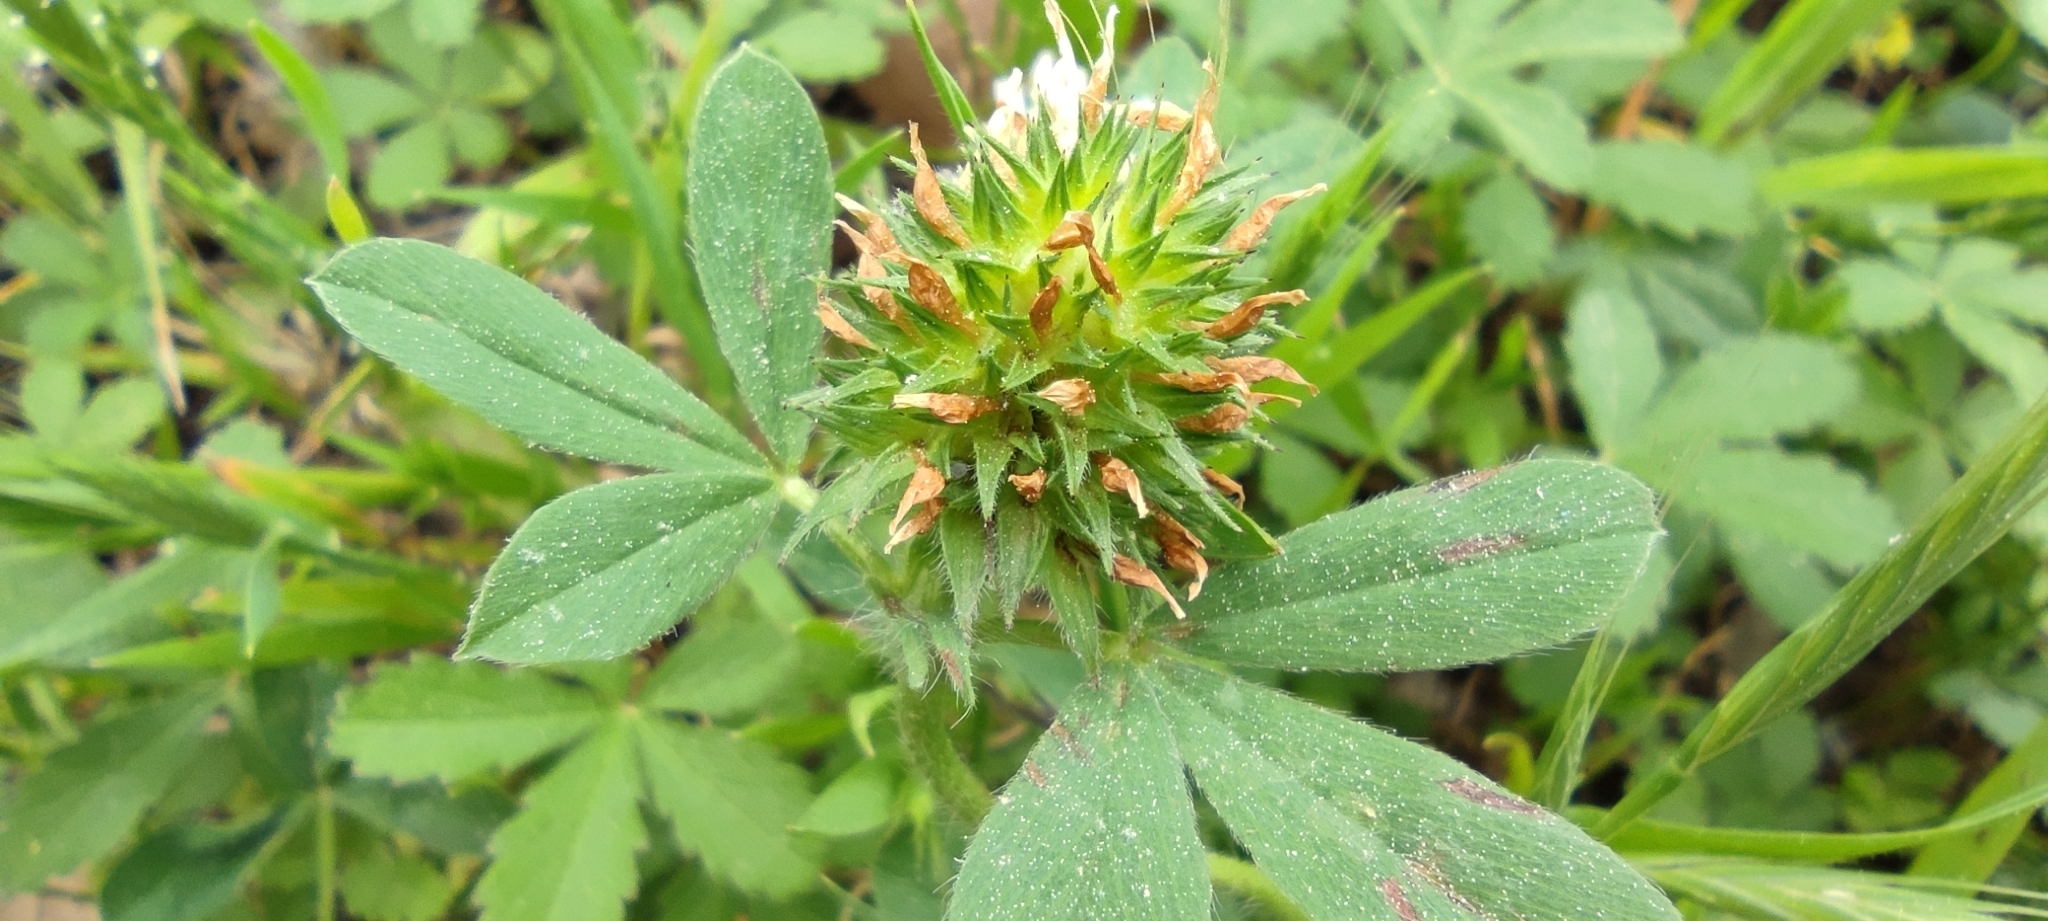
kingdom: Plantae
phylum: Tracheophyta
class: Magnoliopsida
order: Fabales
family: Fabaceae
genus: Trifolium
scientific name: Trifolium squamosum
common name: Sea clover
